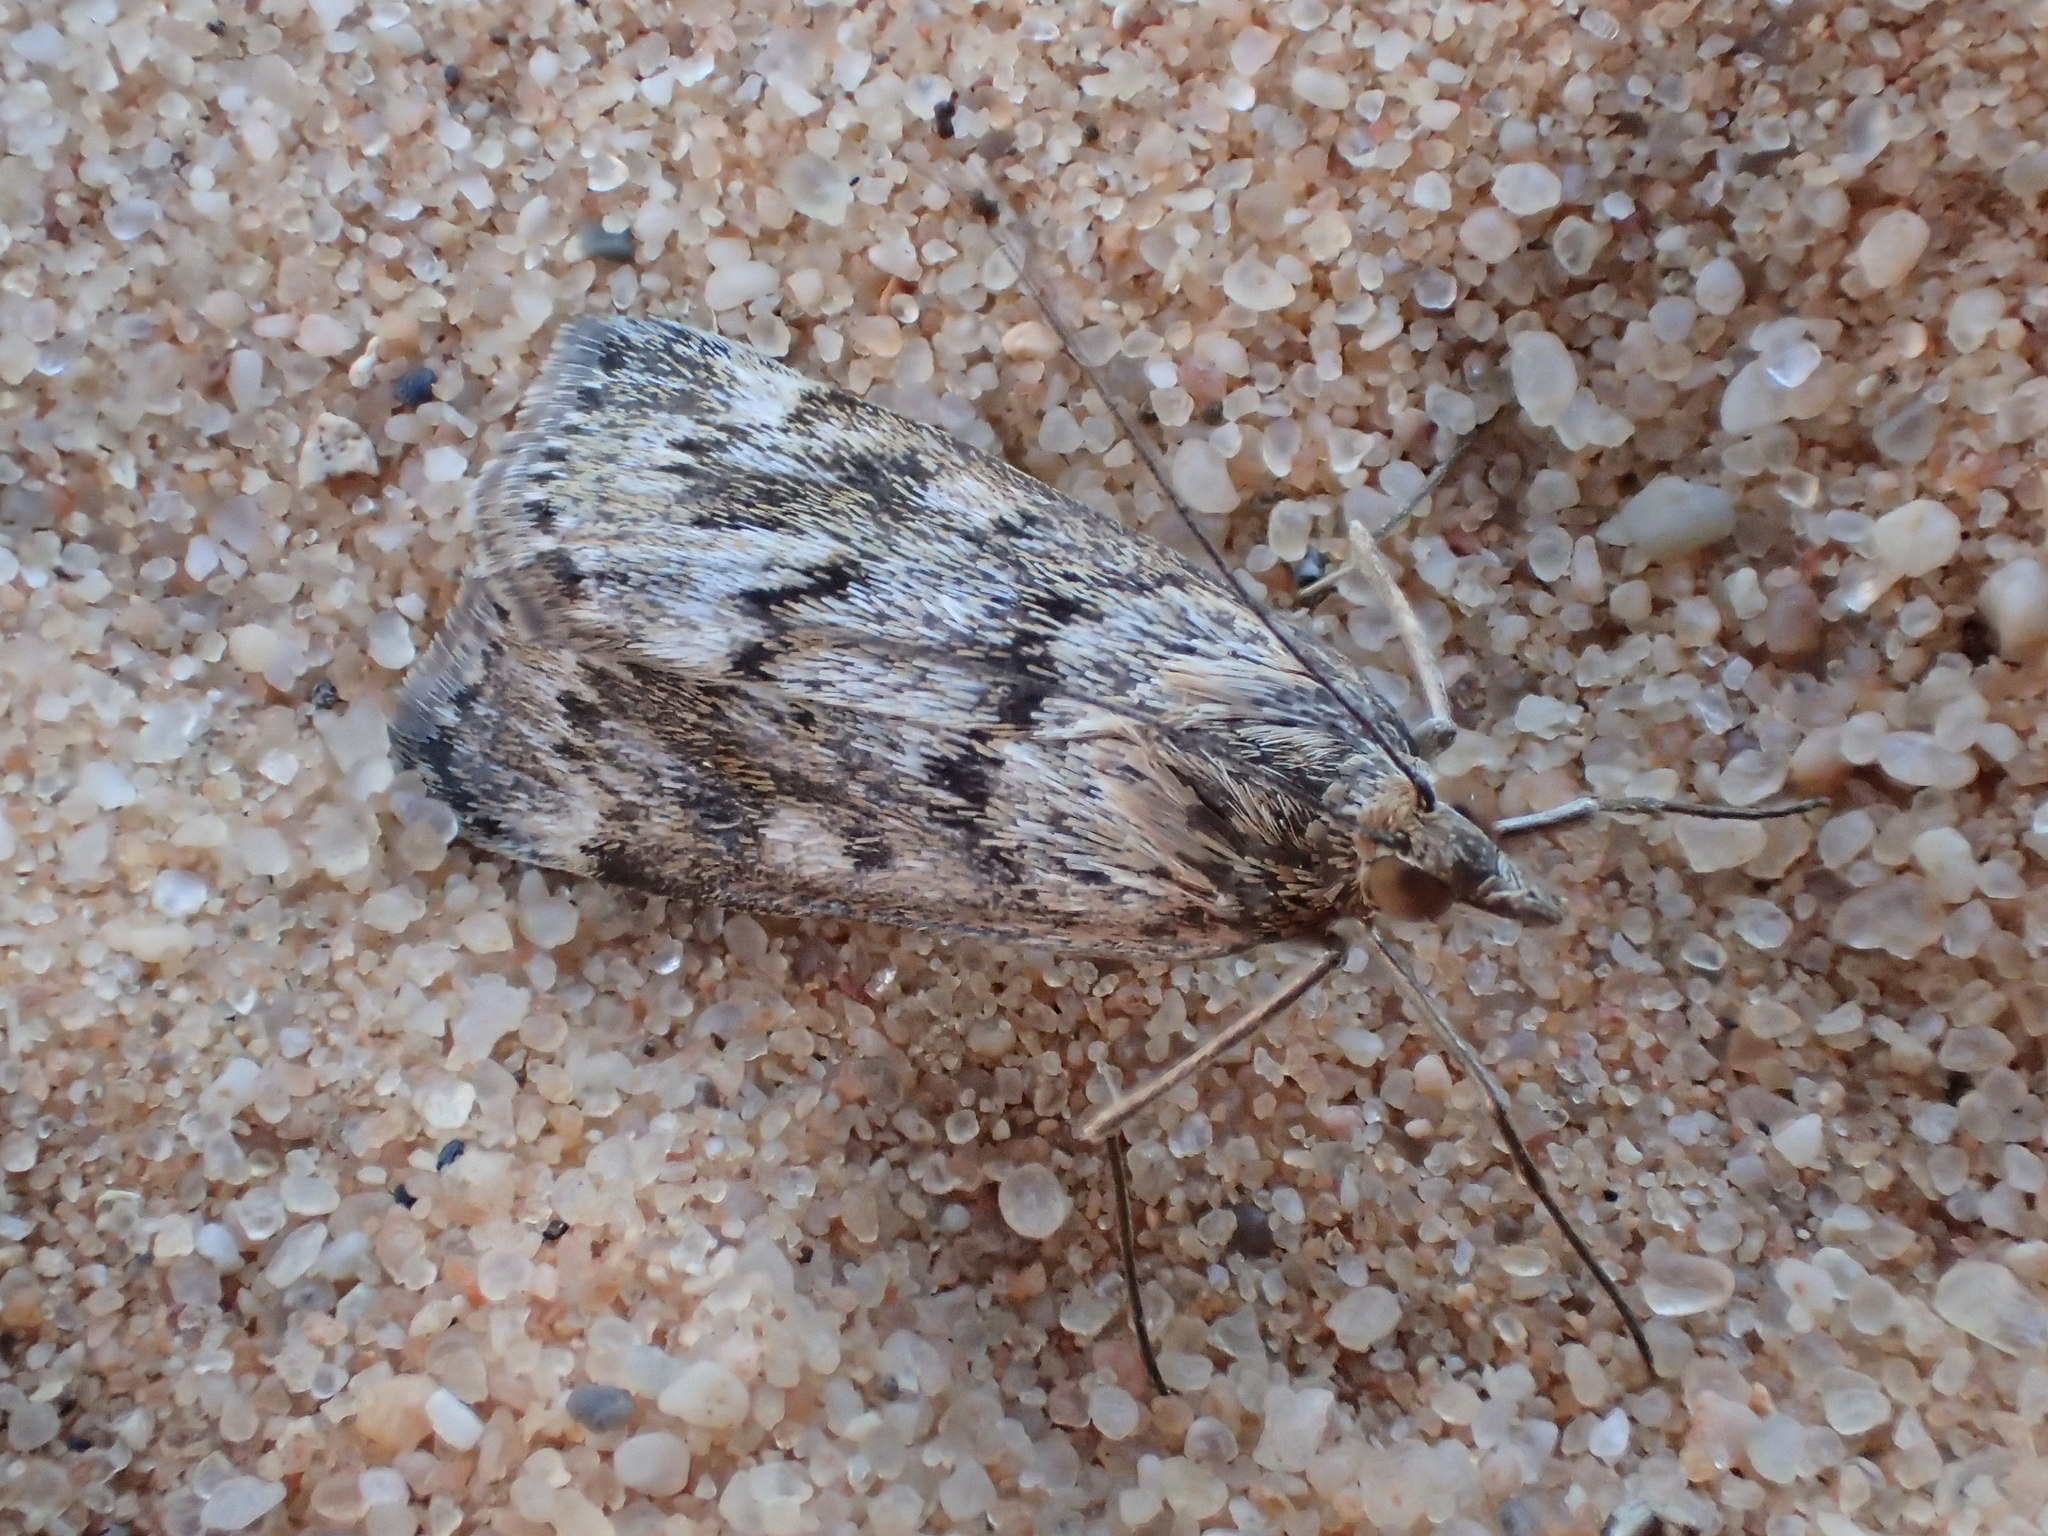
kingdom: Animalia
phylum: Arthropoda
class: Insecta
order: Lepidoptera
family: Crambidae
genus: Achyra
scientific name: Achyra affinitalis
